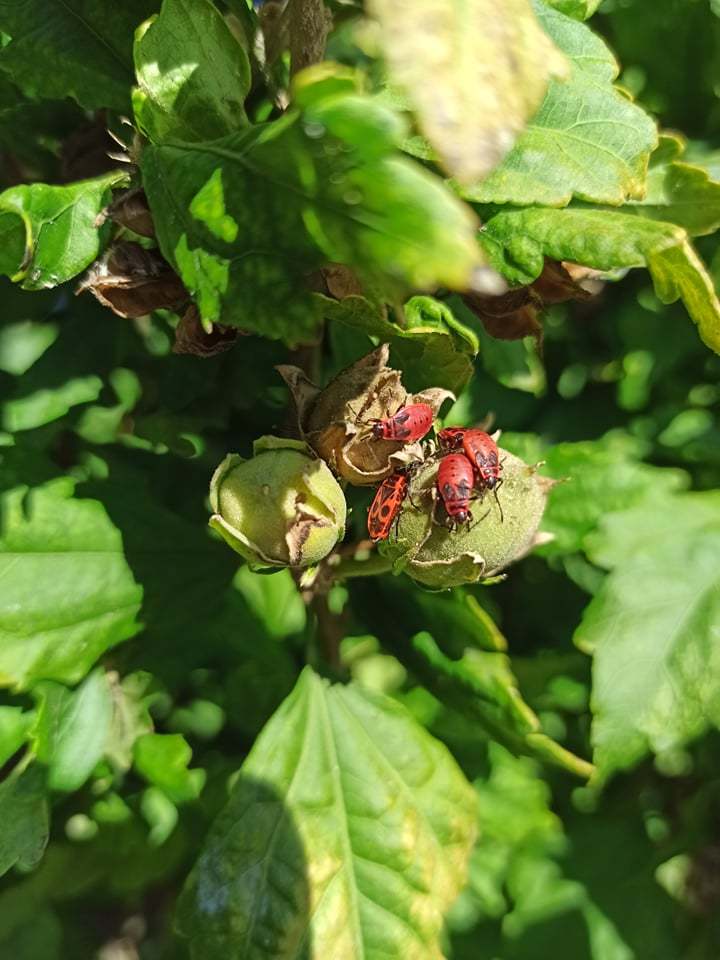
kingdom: Animalia
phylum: Arthropoda
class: Insecta
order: Hemiptera
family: Pyrrhocoridae
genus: Pyrrhocoris
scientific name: Pyrrhocoris apterus
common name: Firebug
